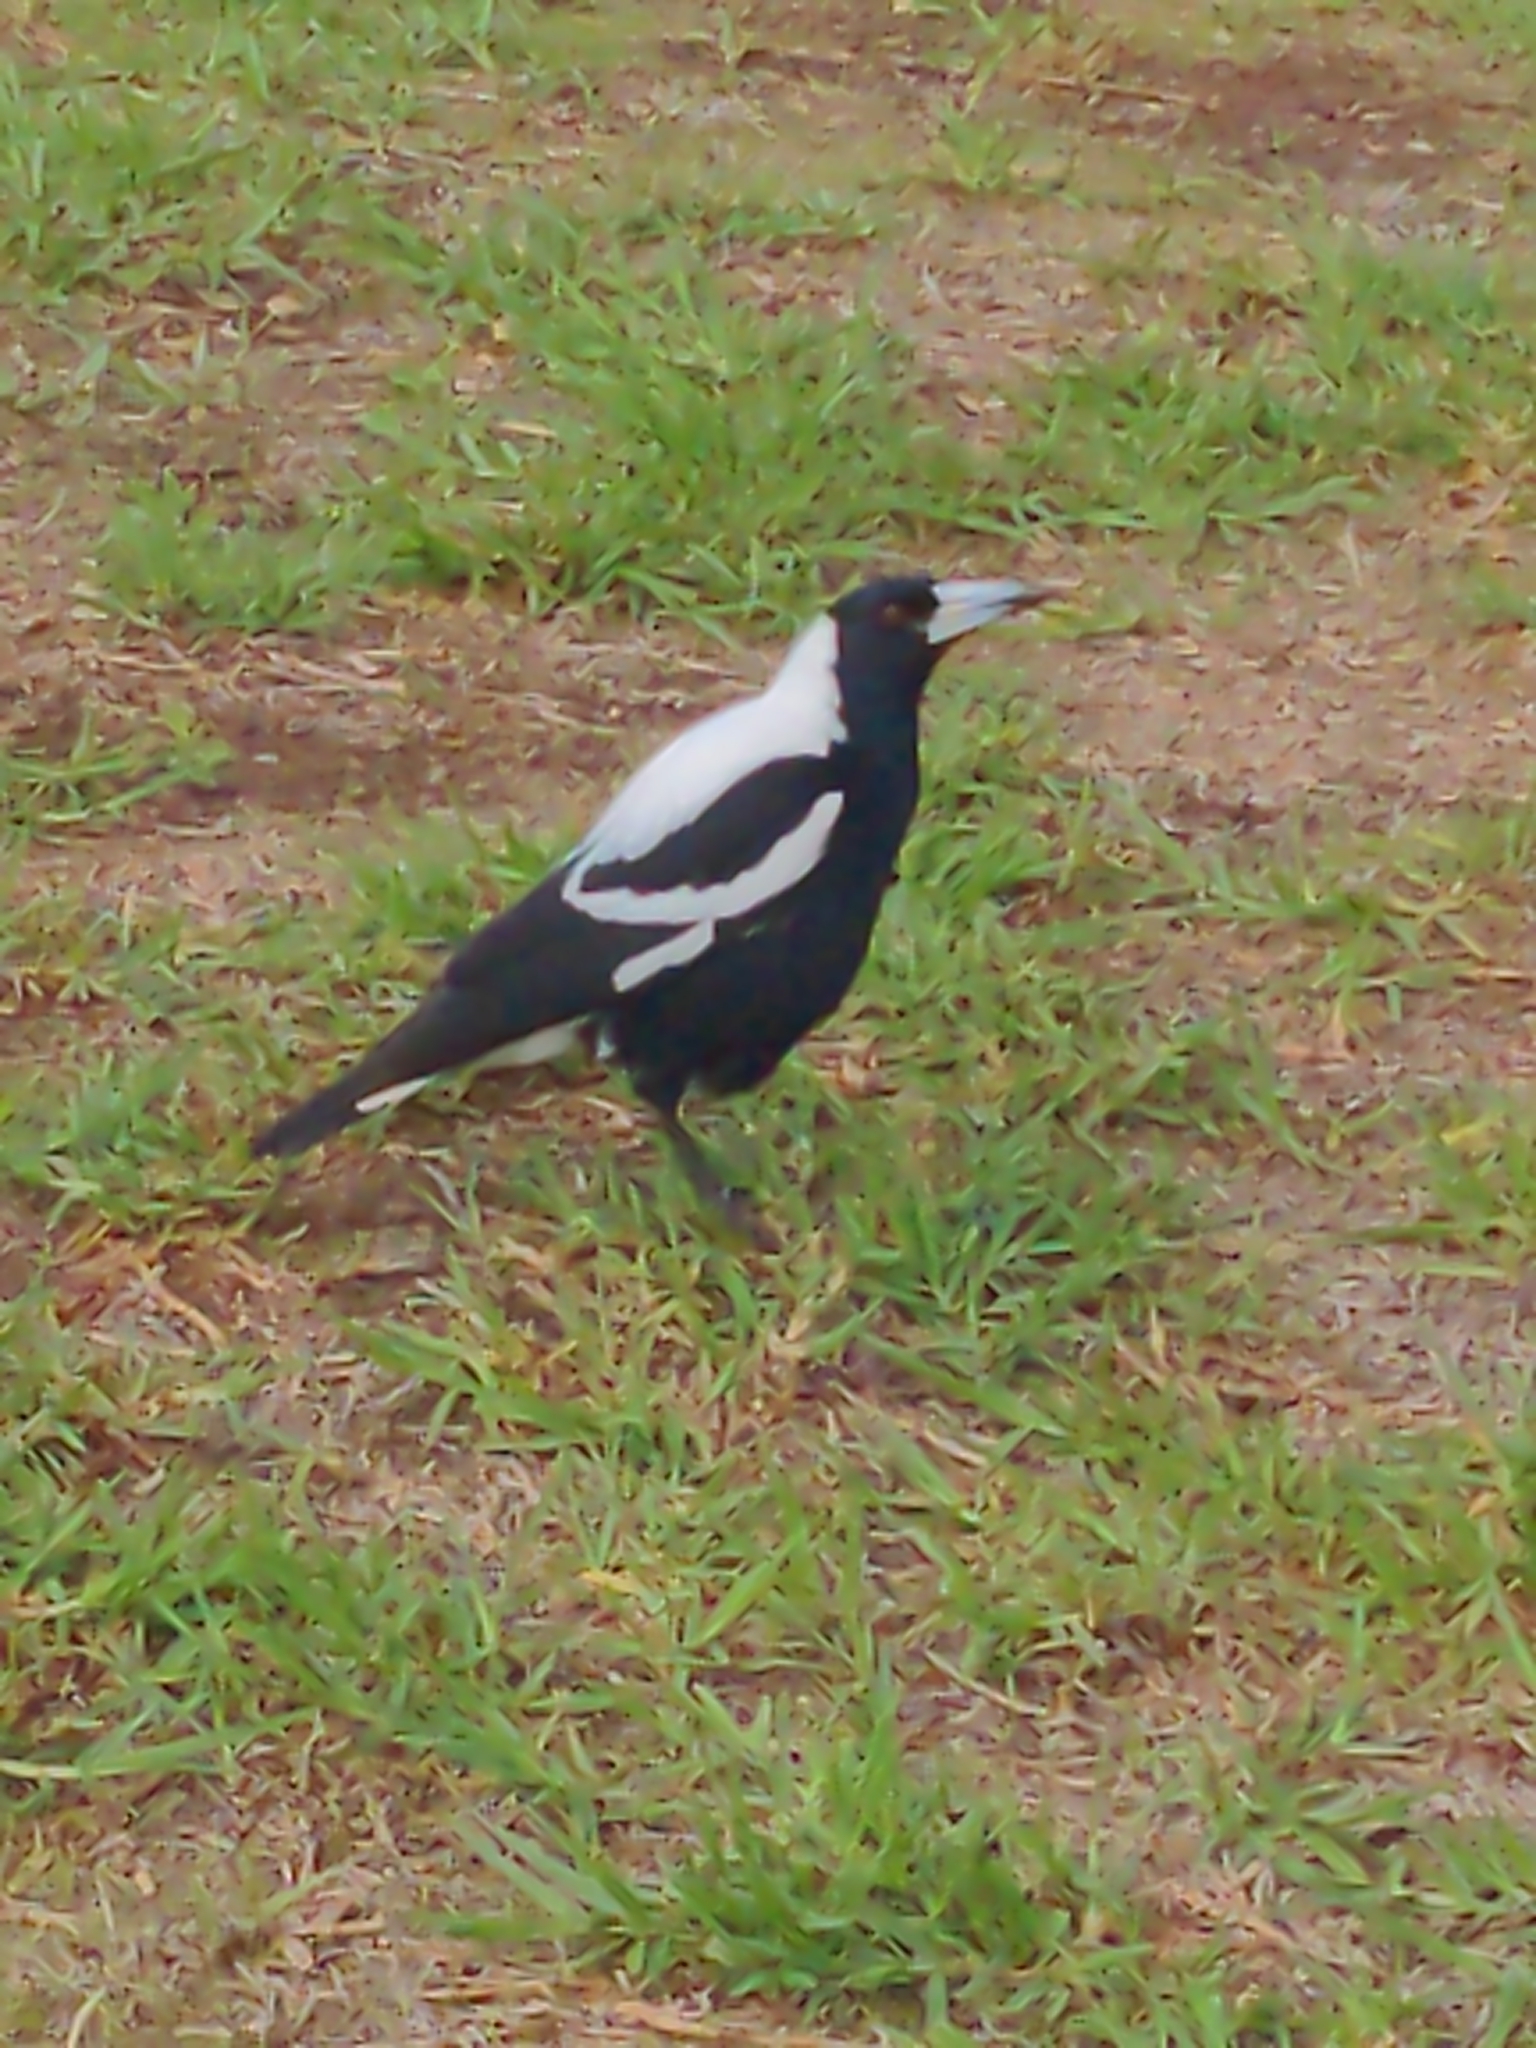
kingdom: Animalia
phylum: Chordata
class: Aves
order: Passeriformes
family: Cracticidae
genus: Gymnorhina
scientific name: Gymnorhina tibicen
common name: Australian magpie
